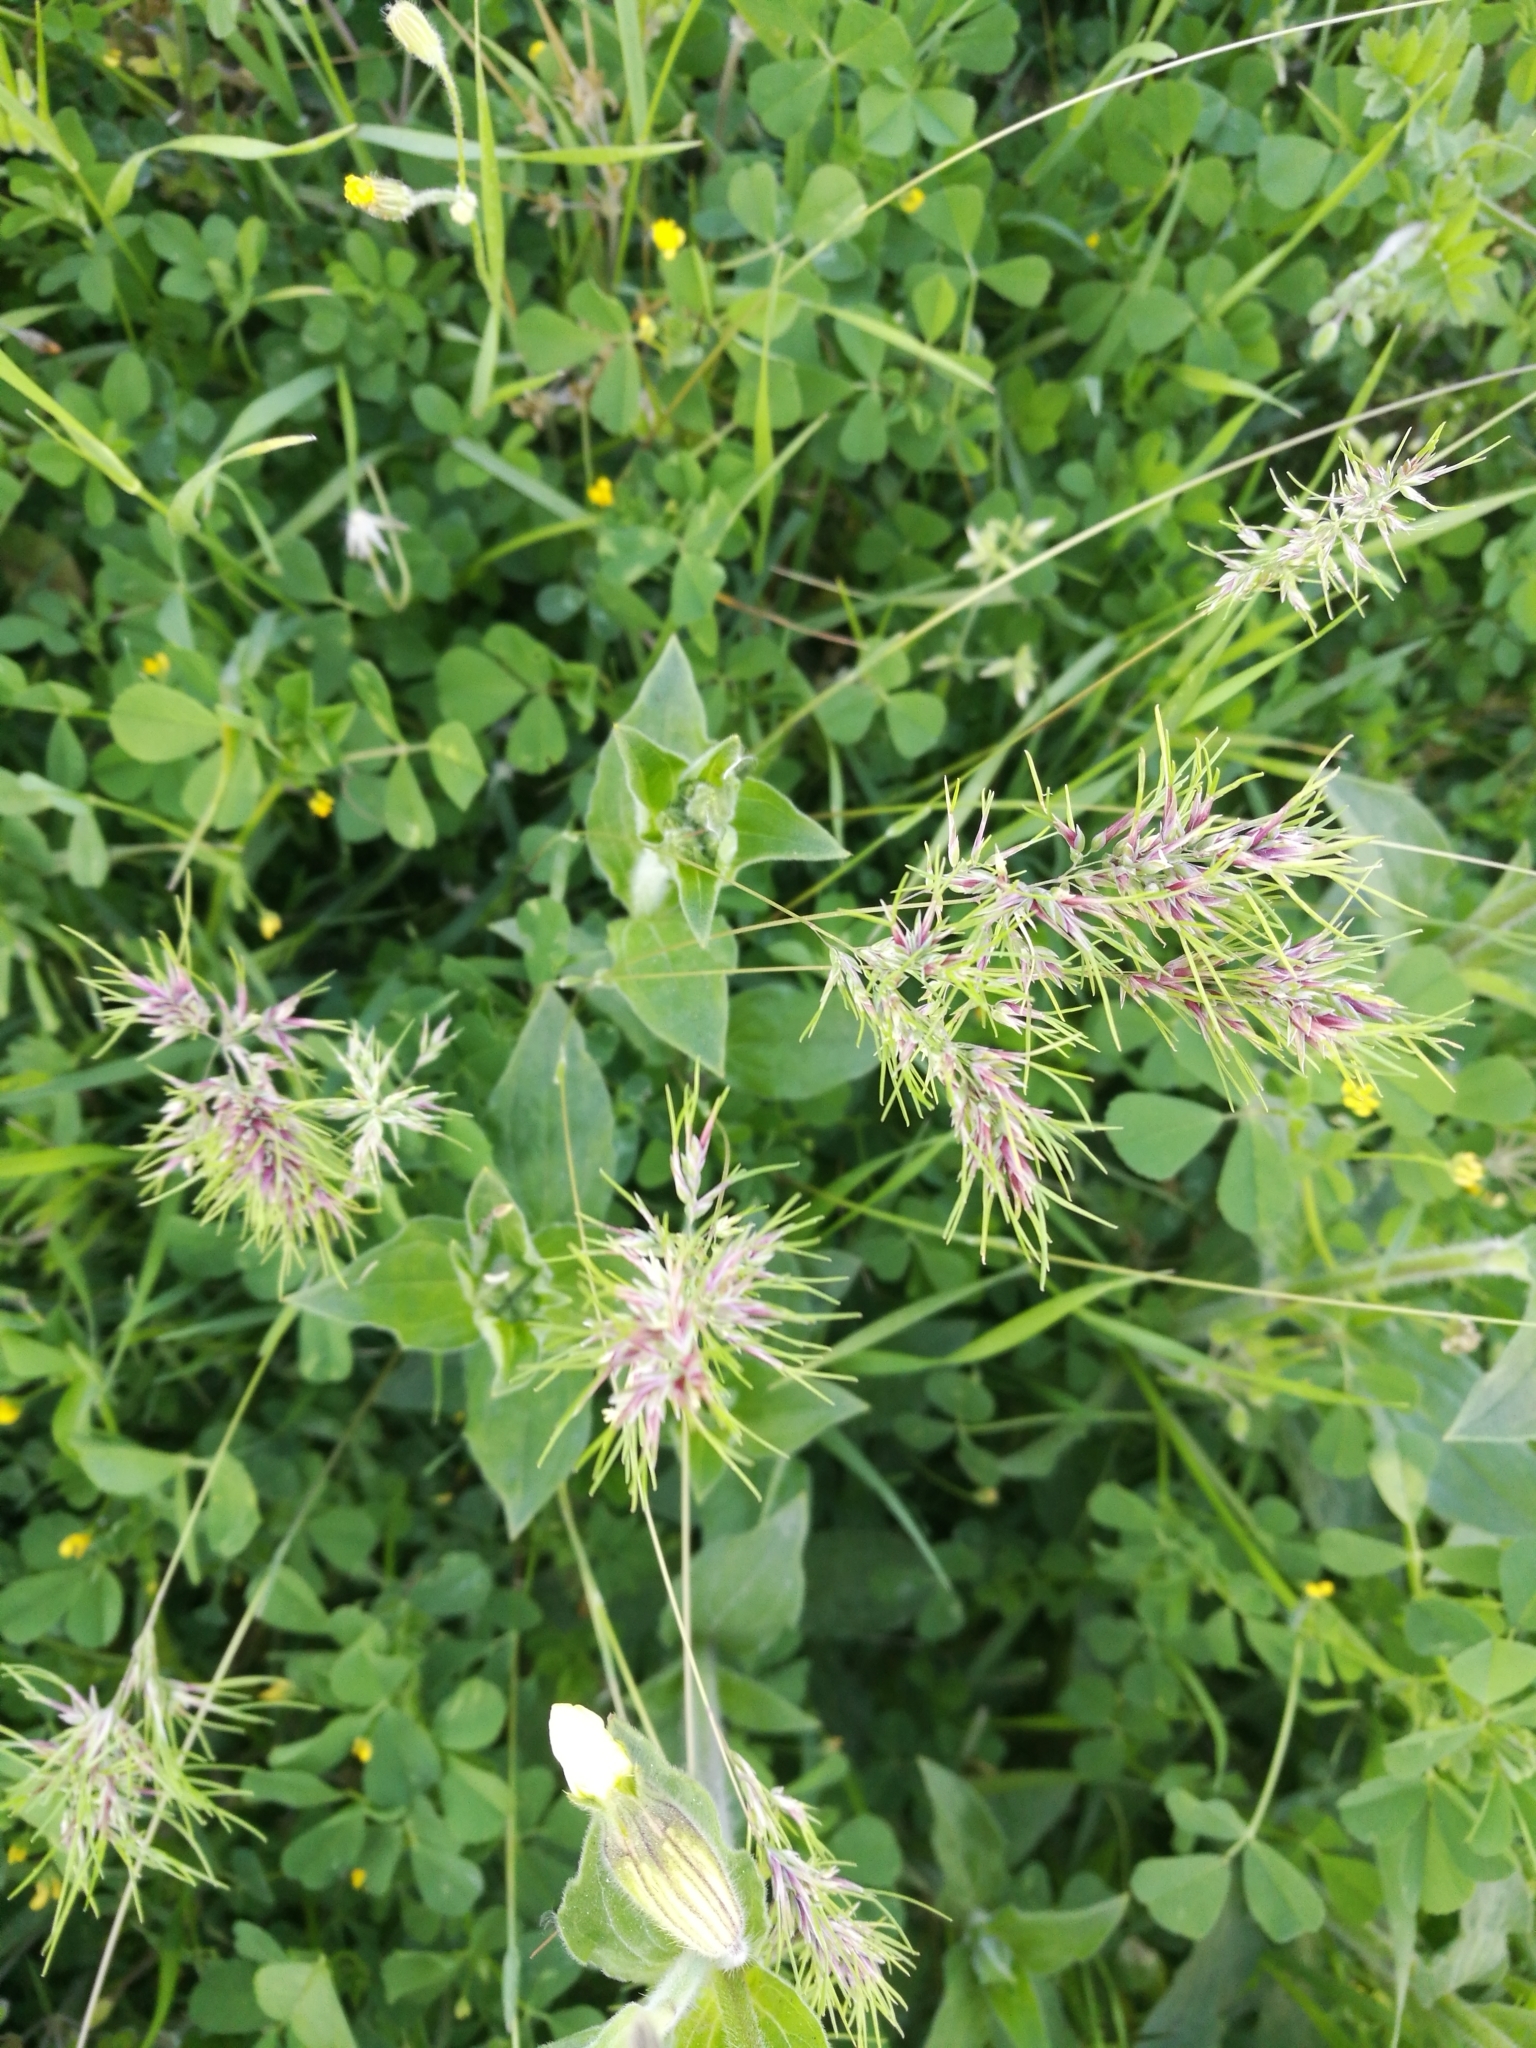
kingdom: Plantae
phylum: Tracheophyta
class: Liliopsida
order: Poales
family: Poaceae
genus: Poa
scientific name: Poa bulbosa
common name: Bulbous bluegrass
